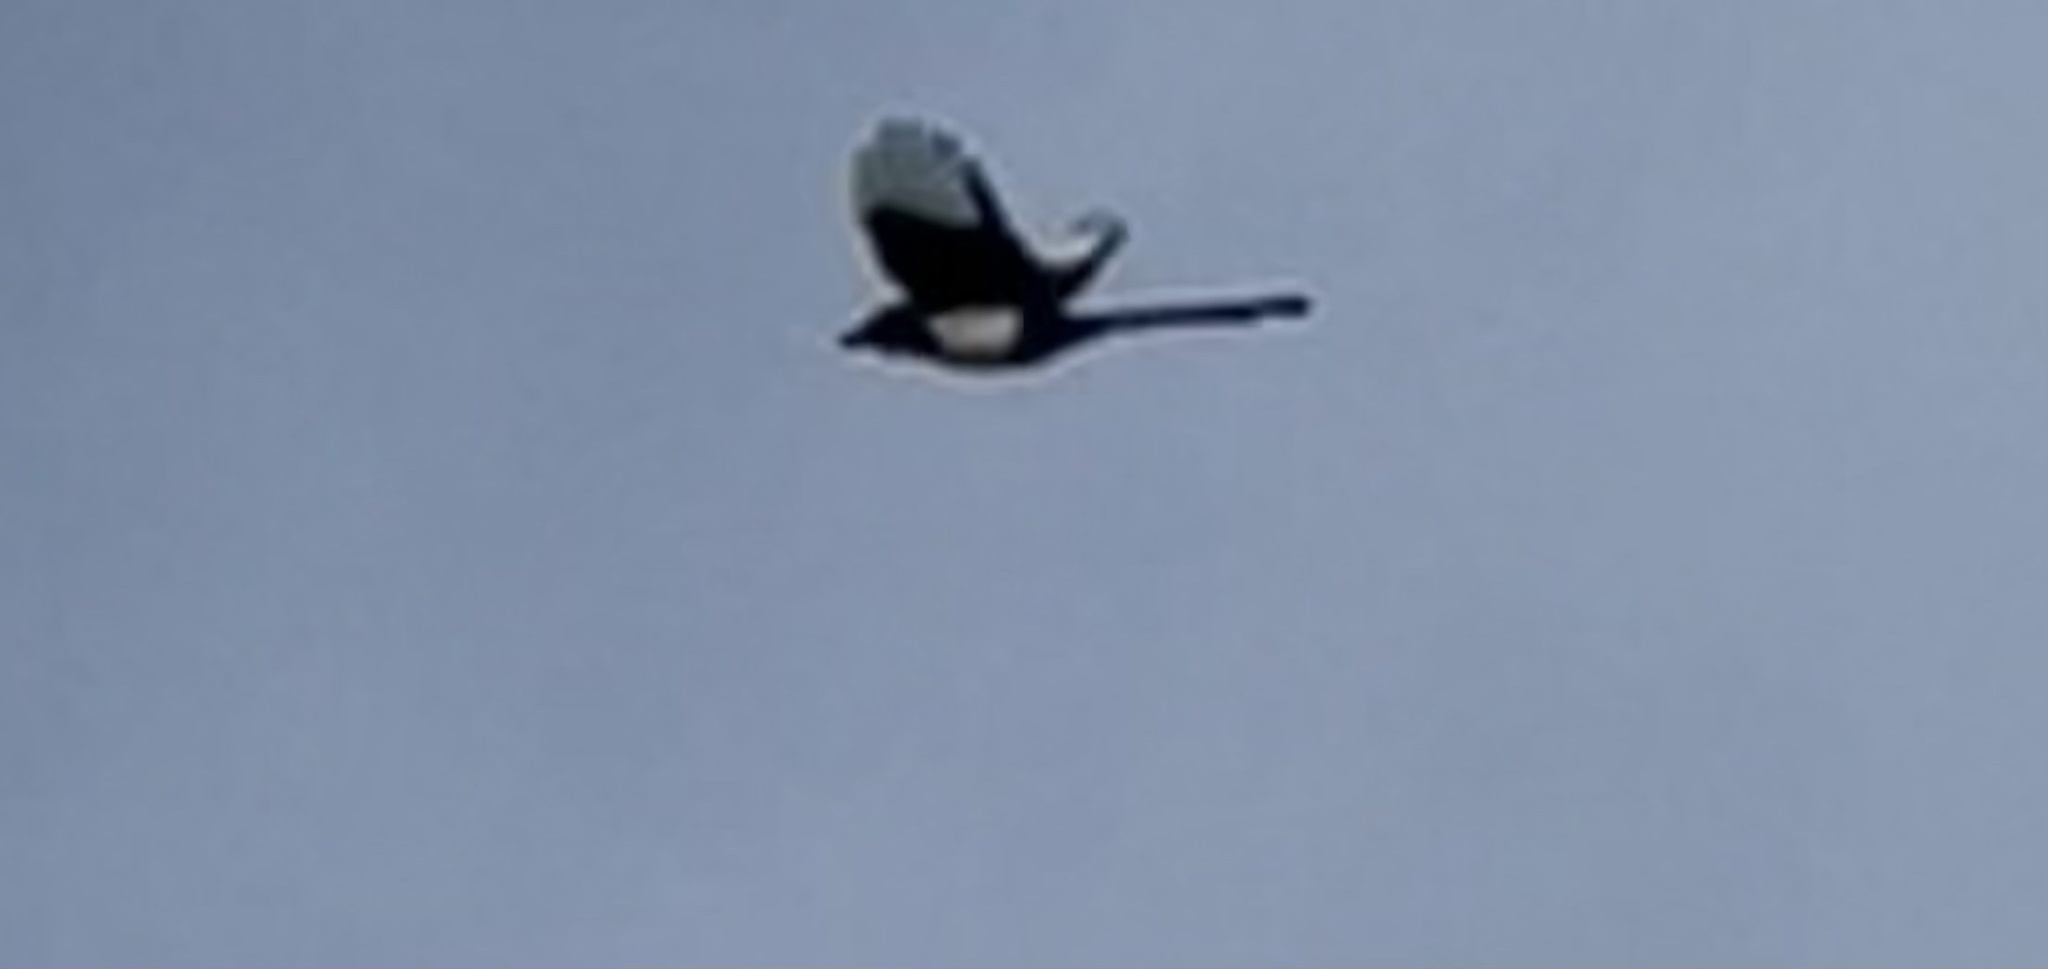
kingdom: Animalia
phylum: Chordata
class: Aves
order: Passeriformes
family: Corvidae
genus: Pica
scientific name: Pica hudsonia
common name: Black-billed magpie
